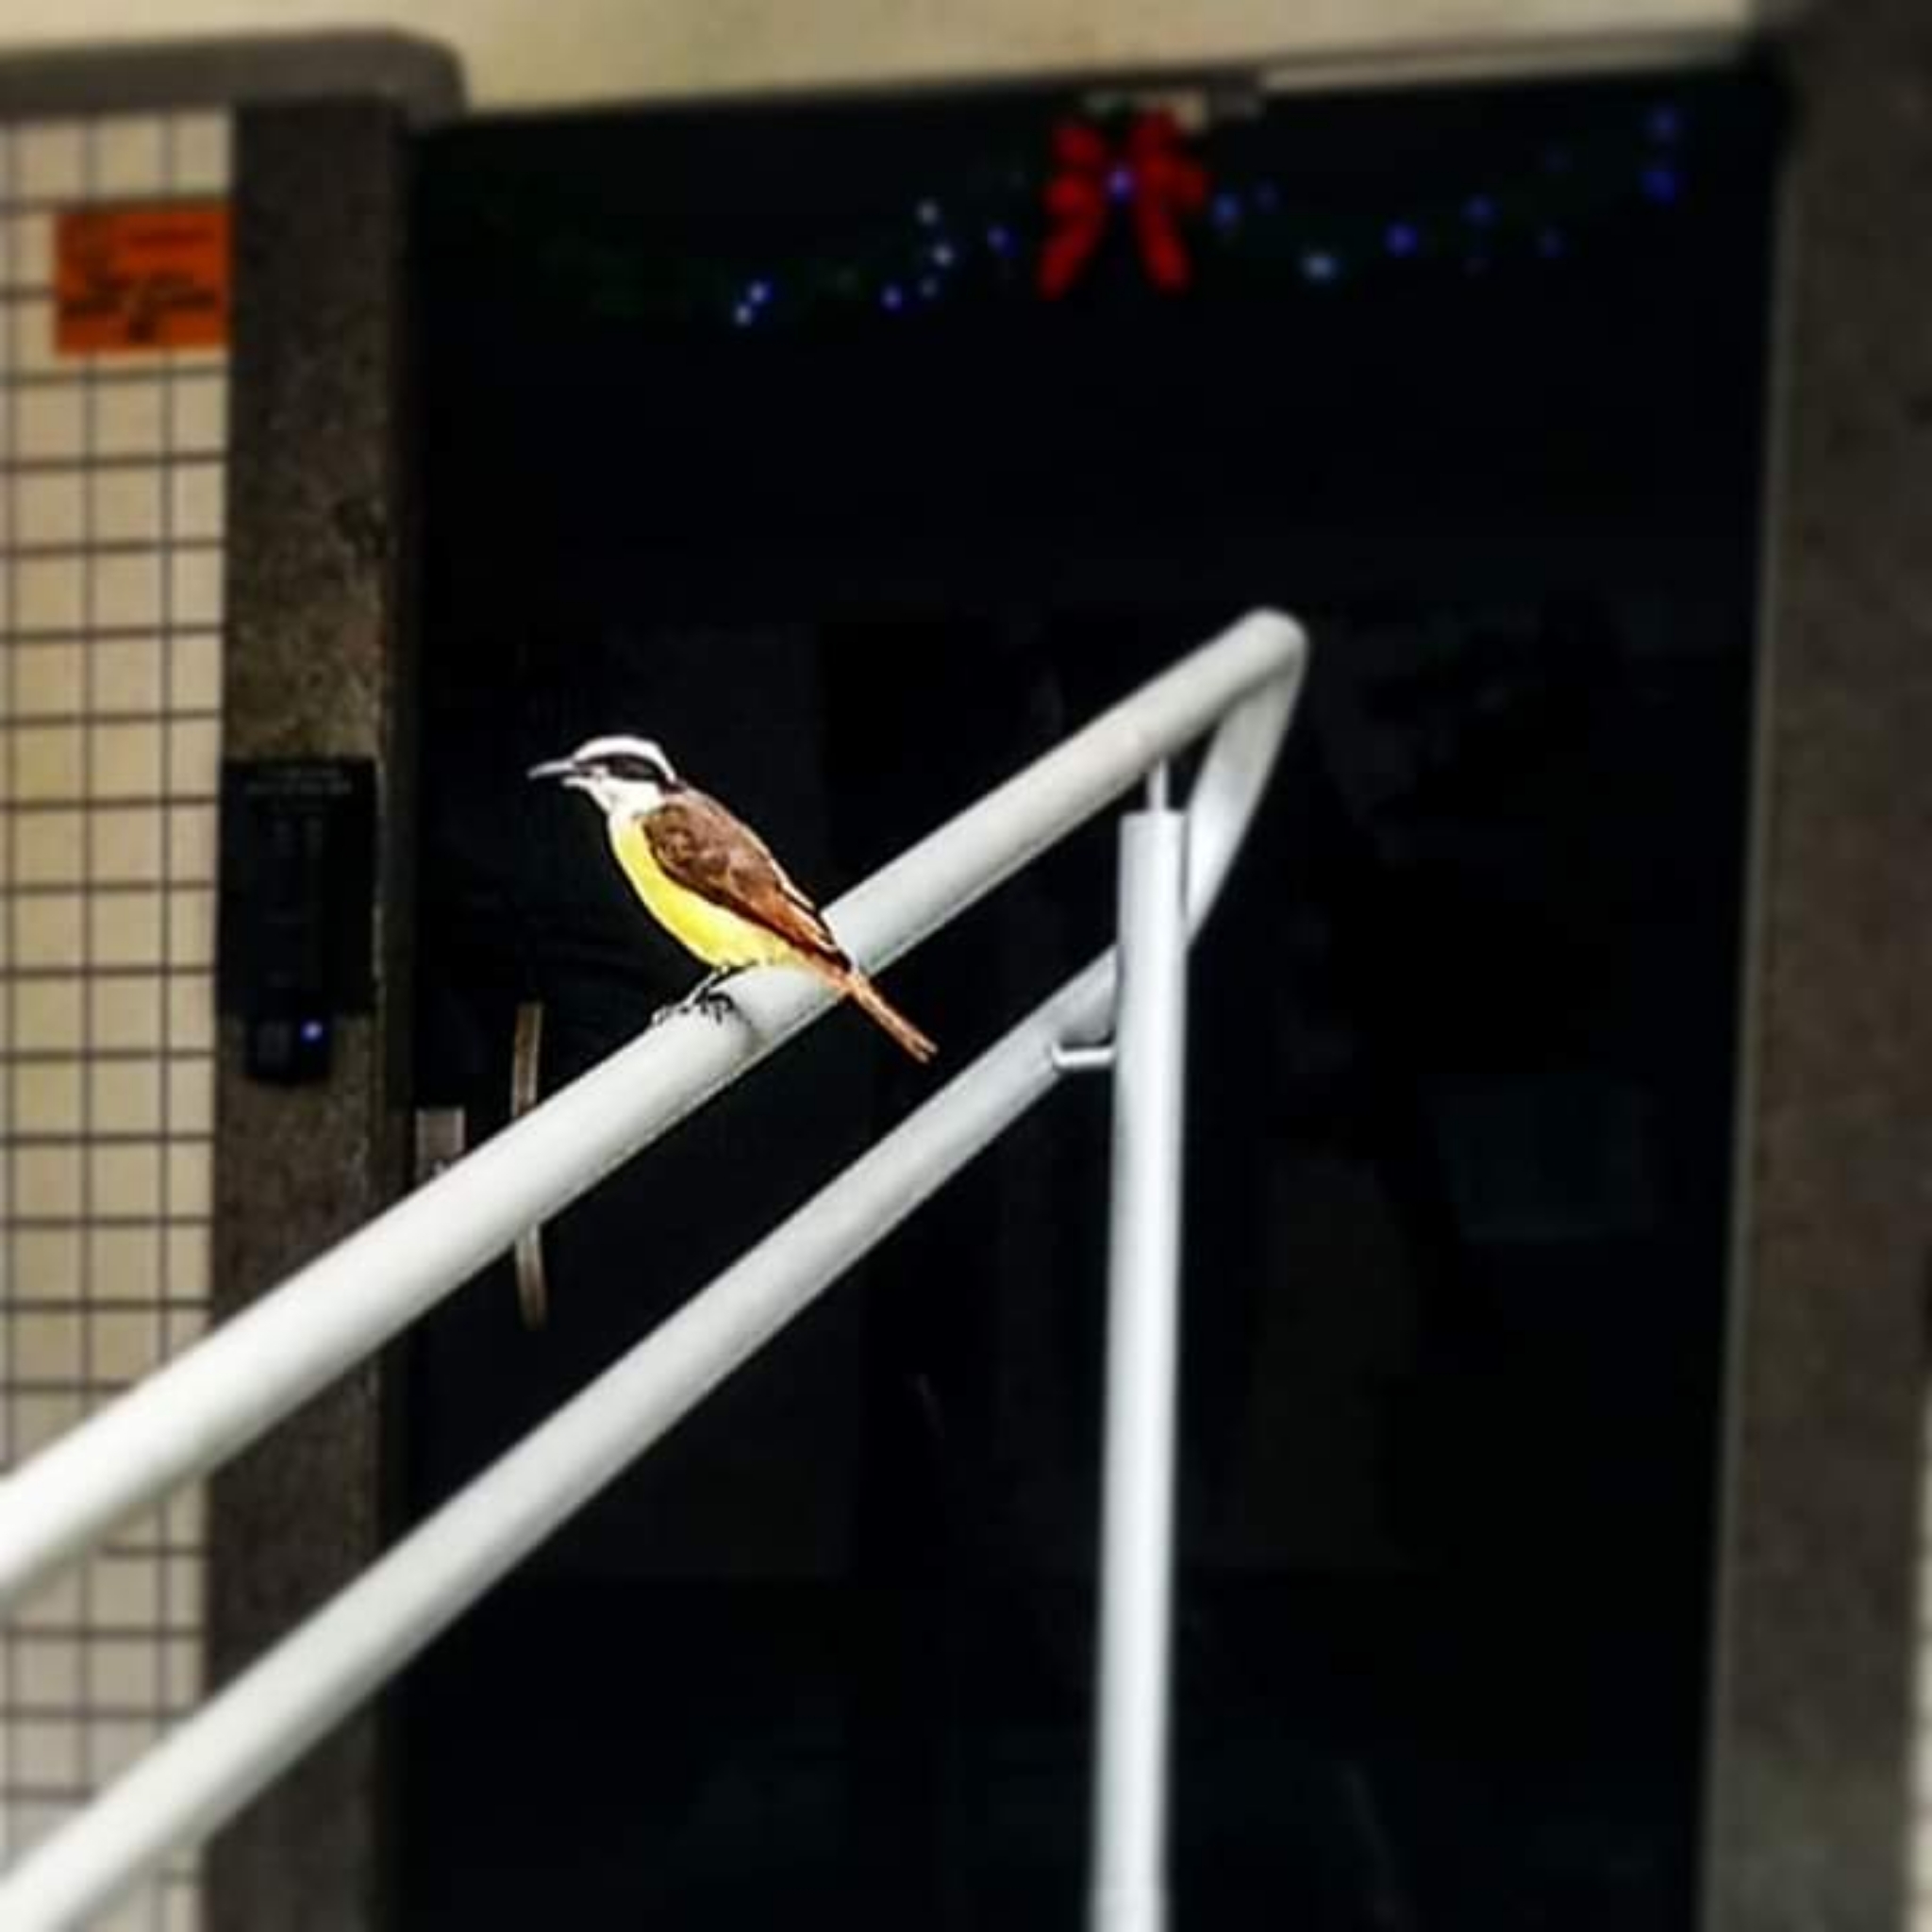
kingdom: Animalia
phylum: Chordata
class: Aves
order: Passeriformes
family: Tyrannidae
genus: Pitangus
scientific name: Pitangus sulphuratus
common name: Great kiskadee
